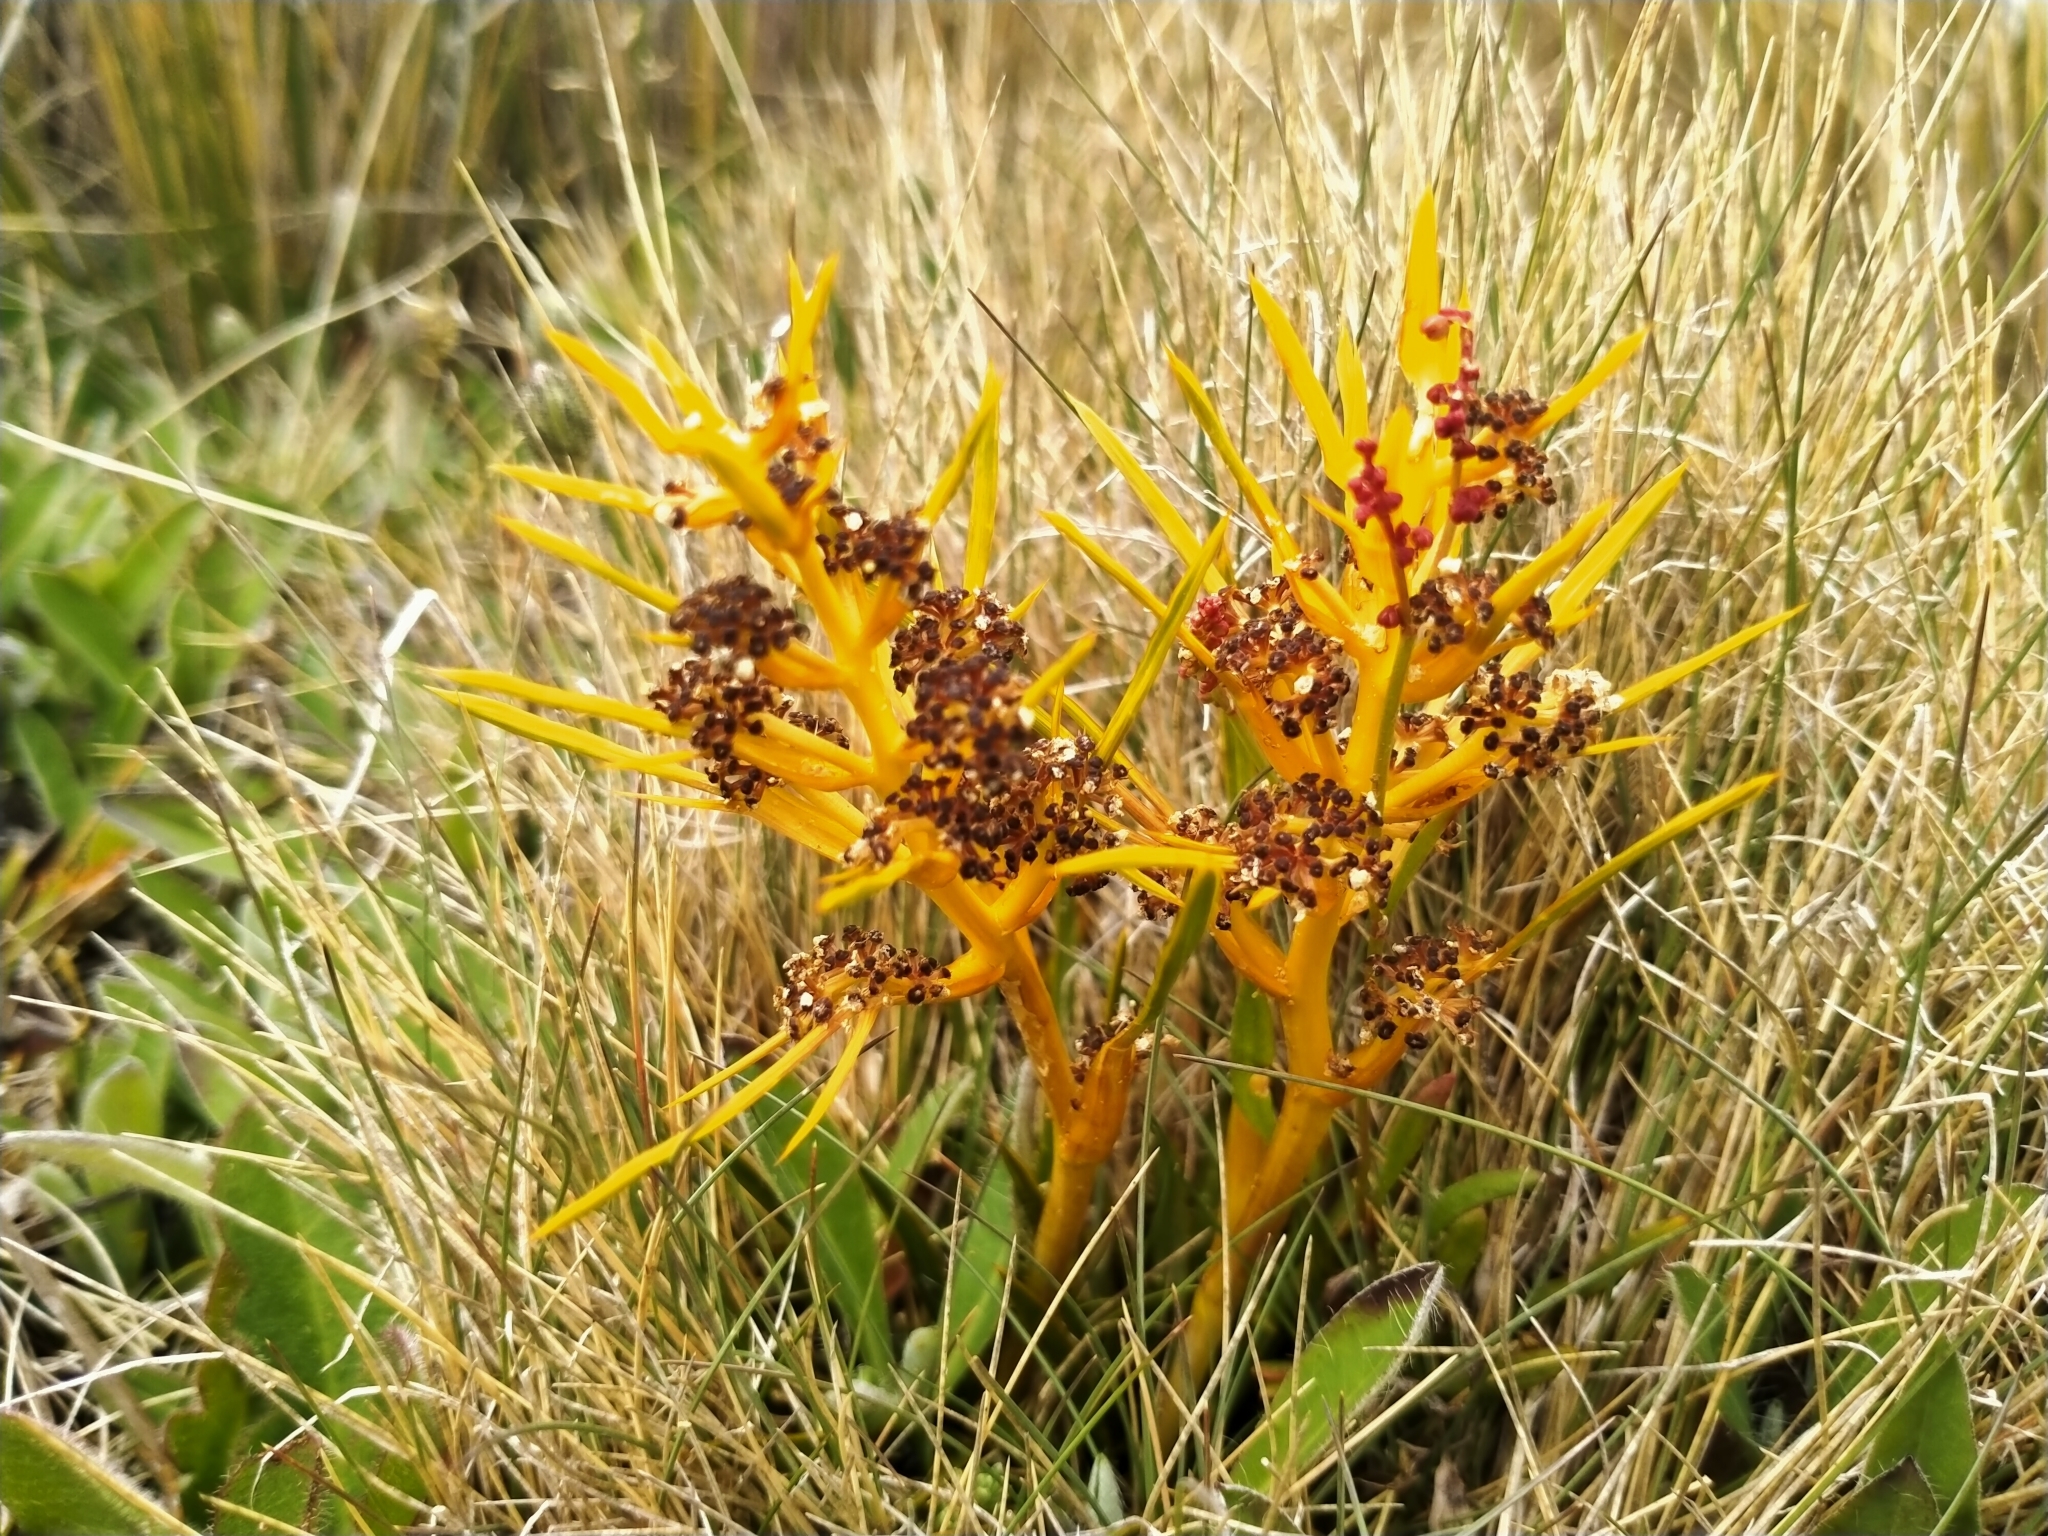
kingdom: Plantae
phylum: Tracheophyta
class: Magnoliopsida
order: Apiales
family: Apiaceae
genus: Aciphylla
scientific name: Aciphylla verticillata
